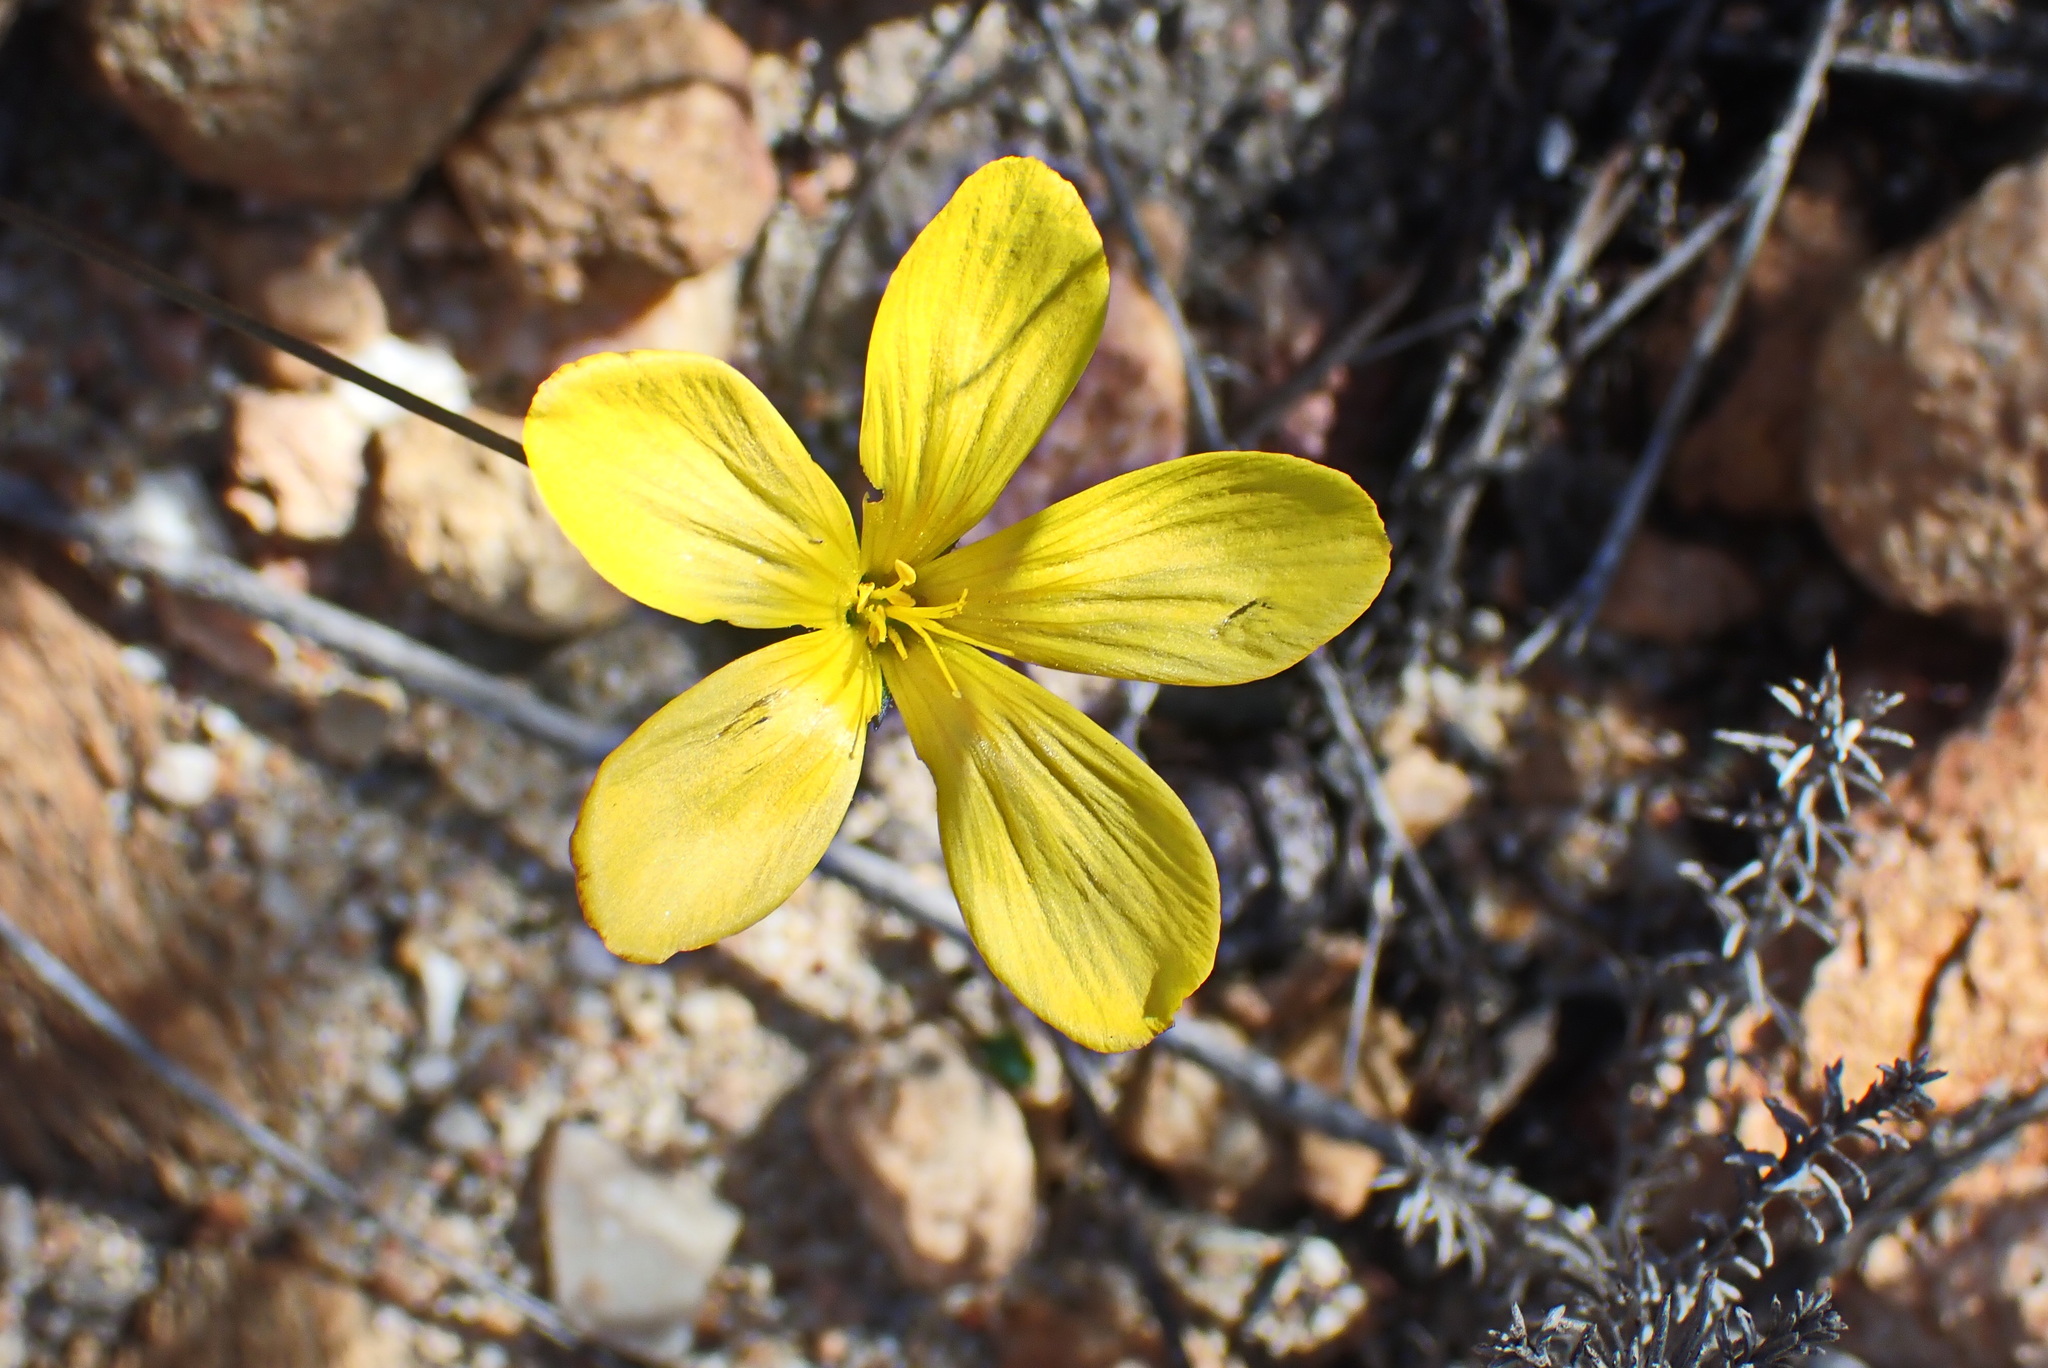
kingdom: Plantae
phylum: Tracheophyta
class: Magnoliopsida
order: Malpighiales
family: Linaceae
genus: Linum
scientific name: Linum africanum
